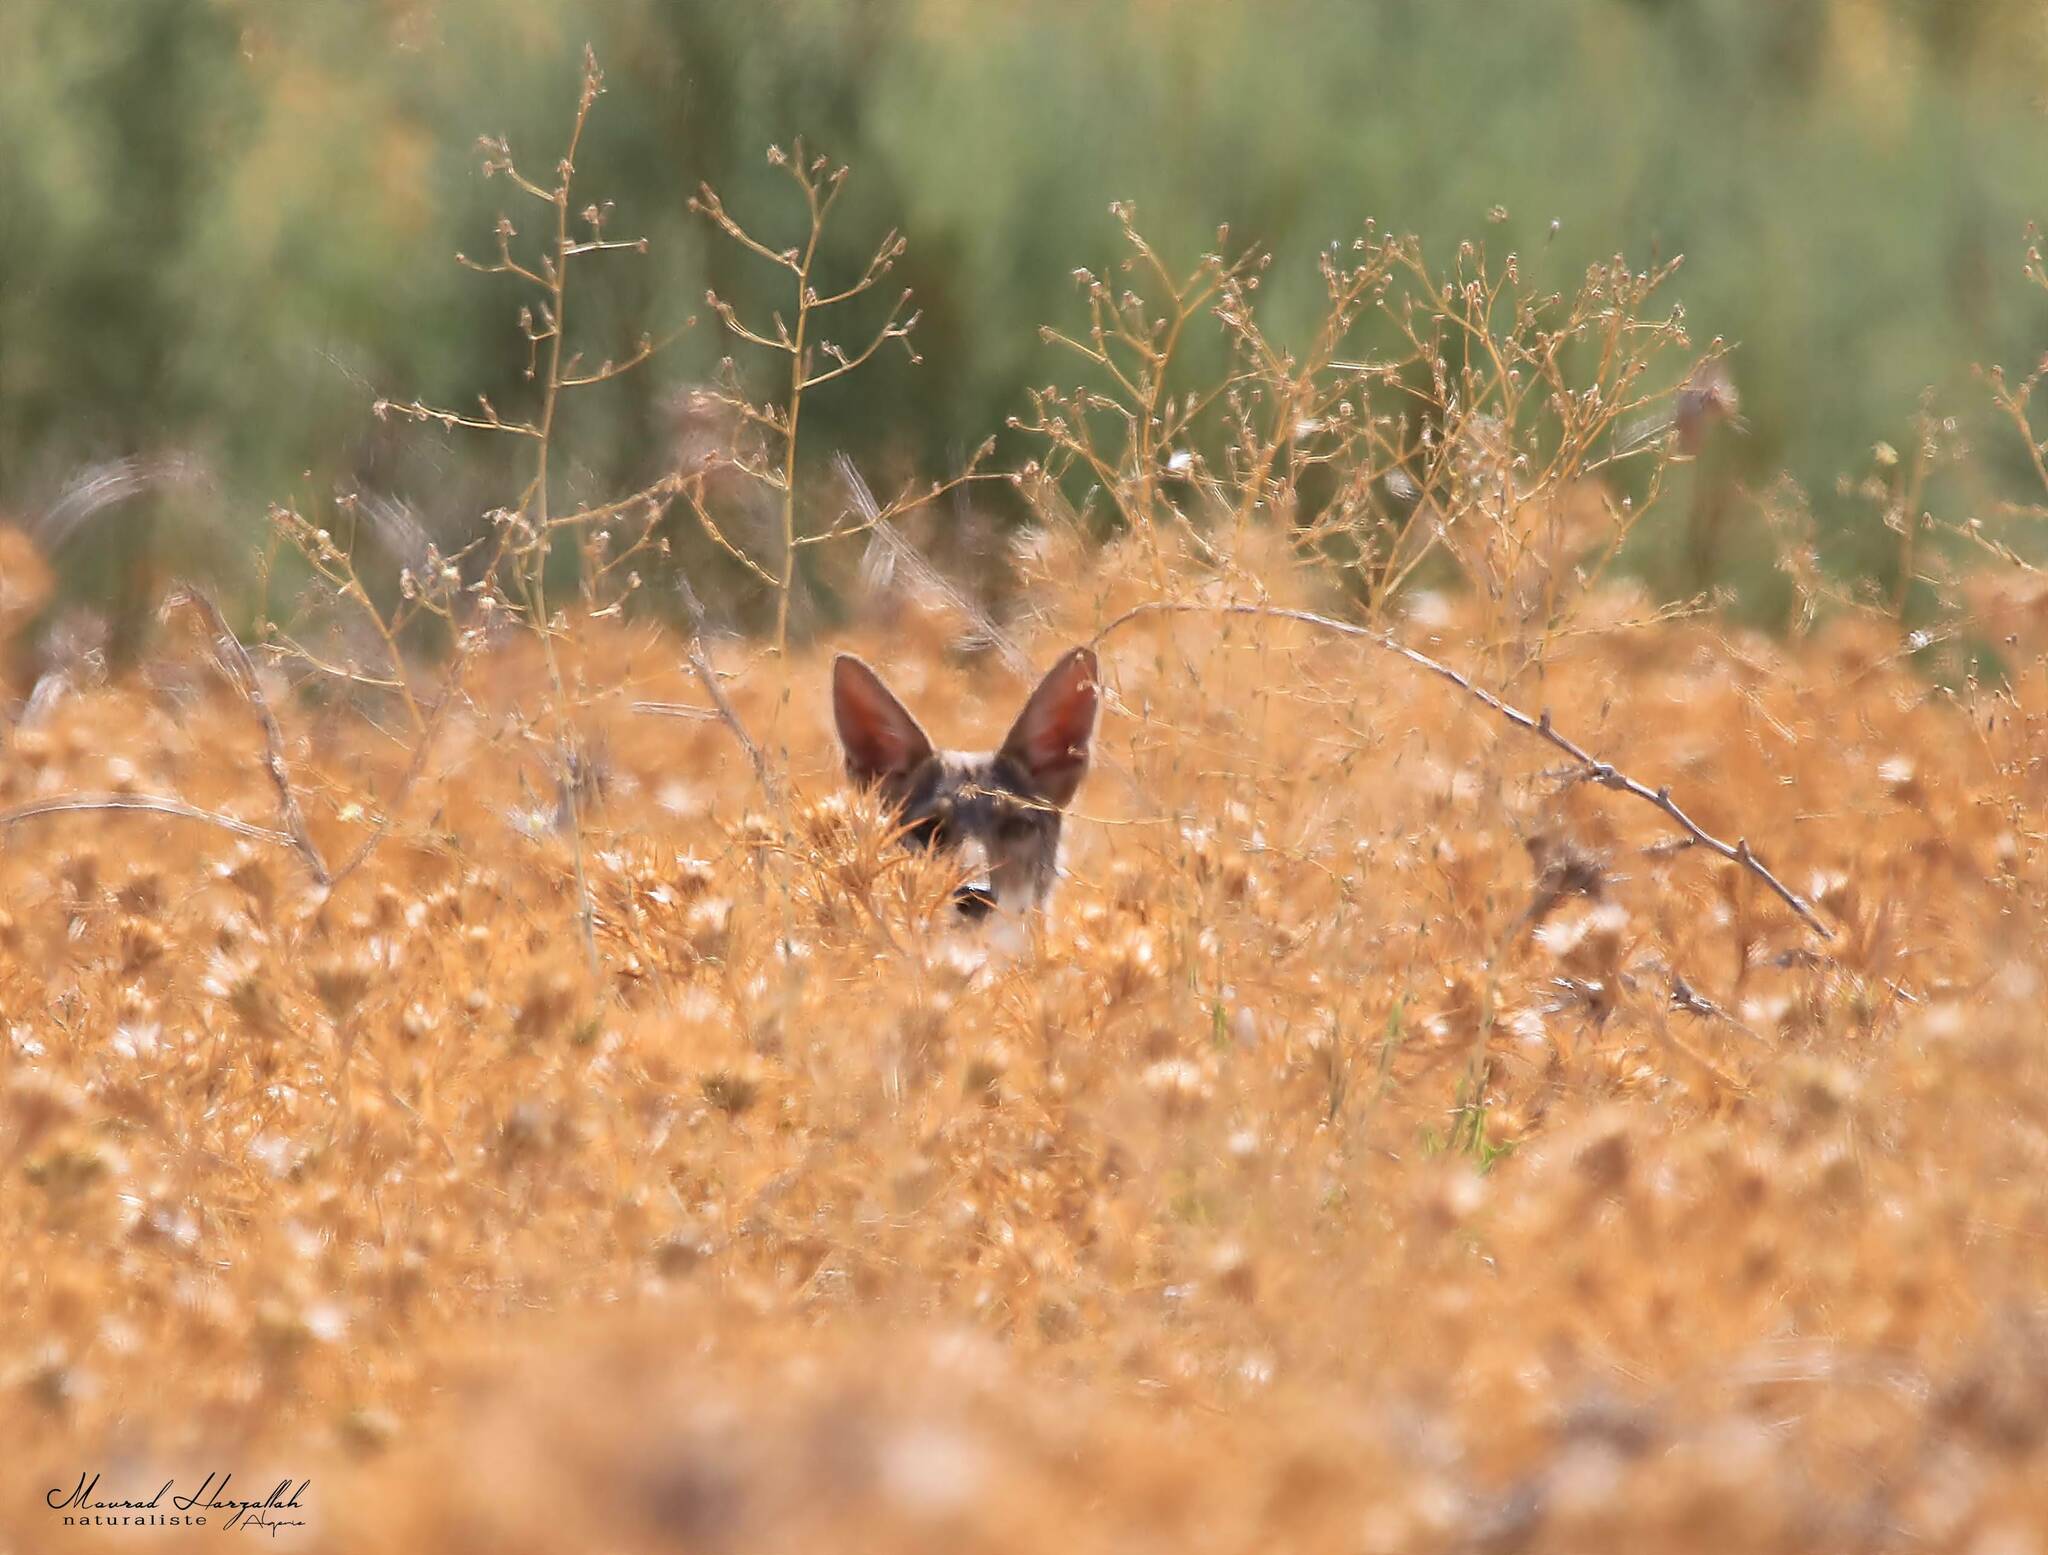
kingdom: Animalia
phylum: Chordata
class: Mammalia
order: Carnivora
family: Canidae
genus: Canis
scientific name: Canis lupaster
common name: African golden wolf
